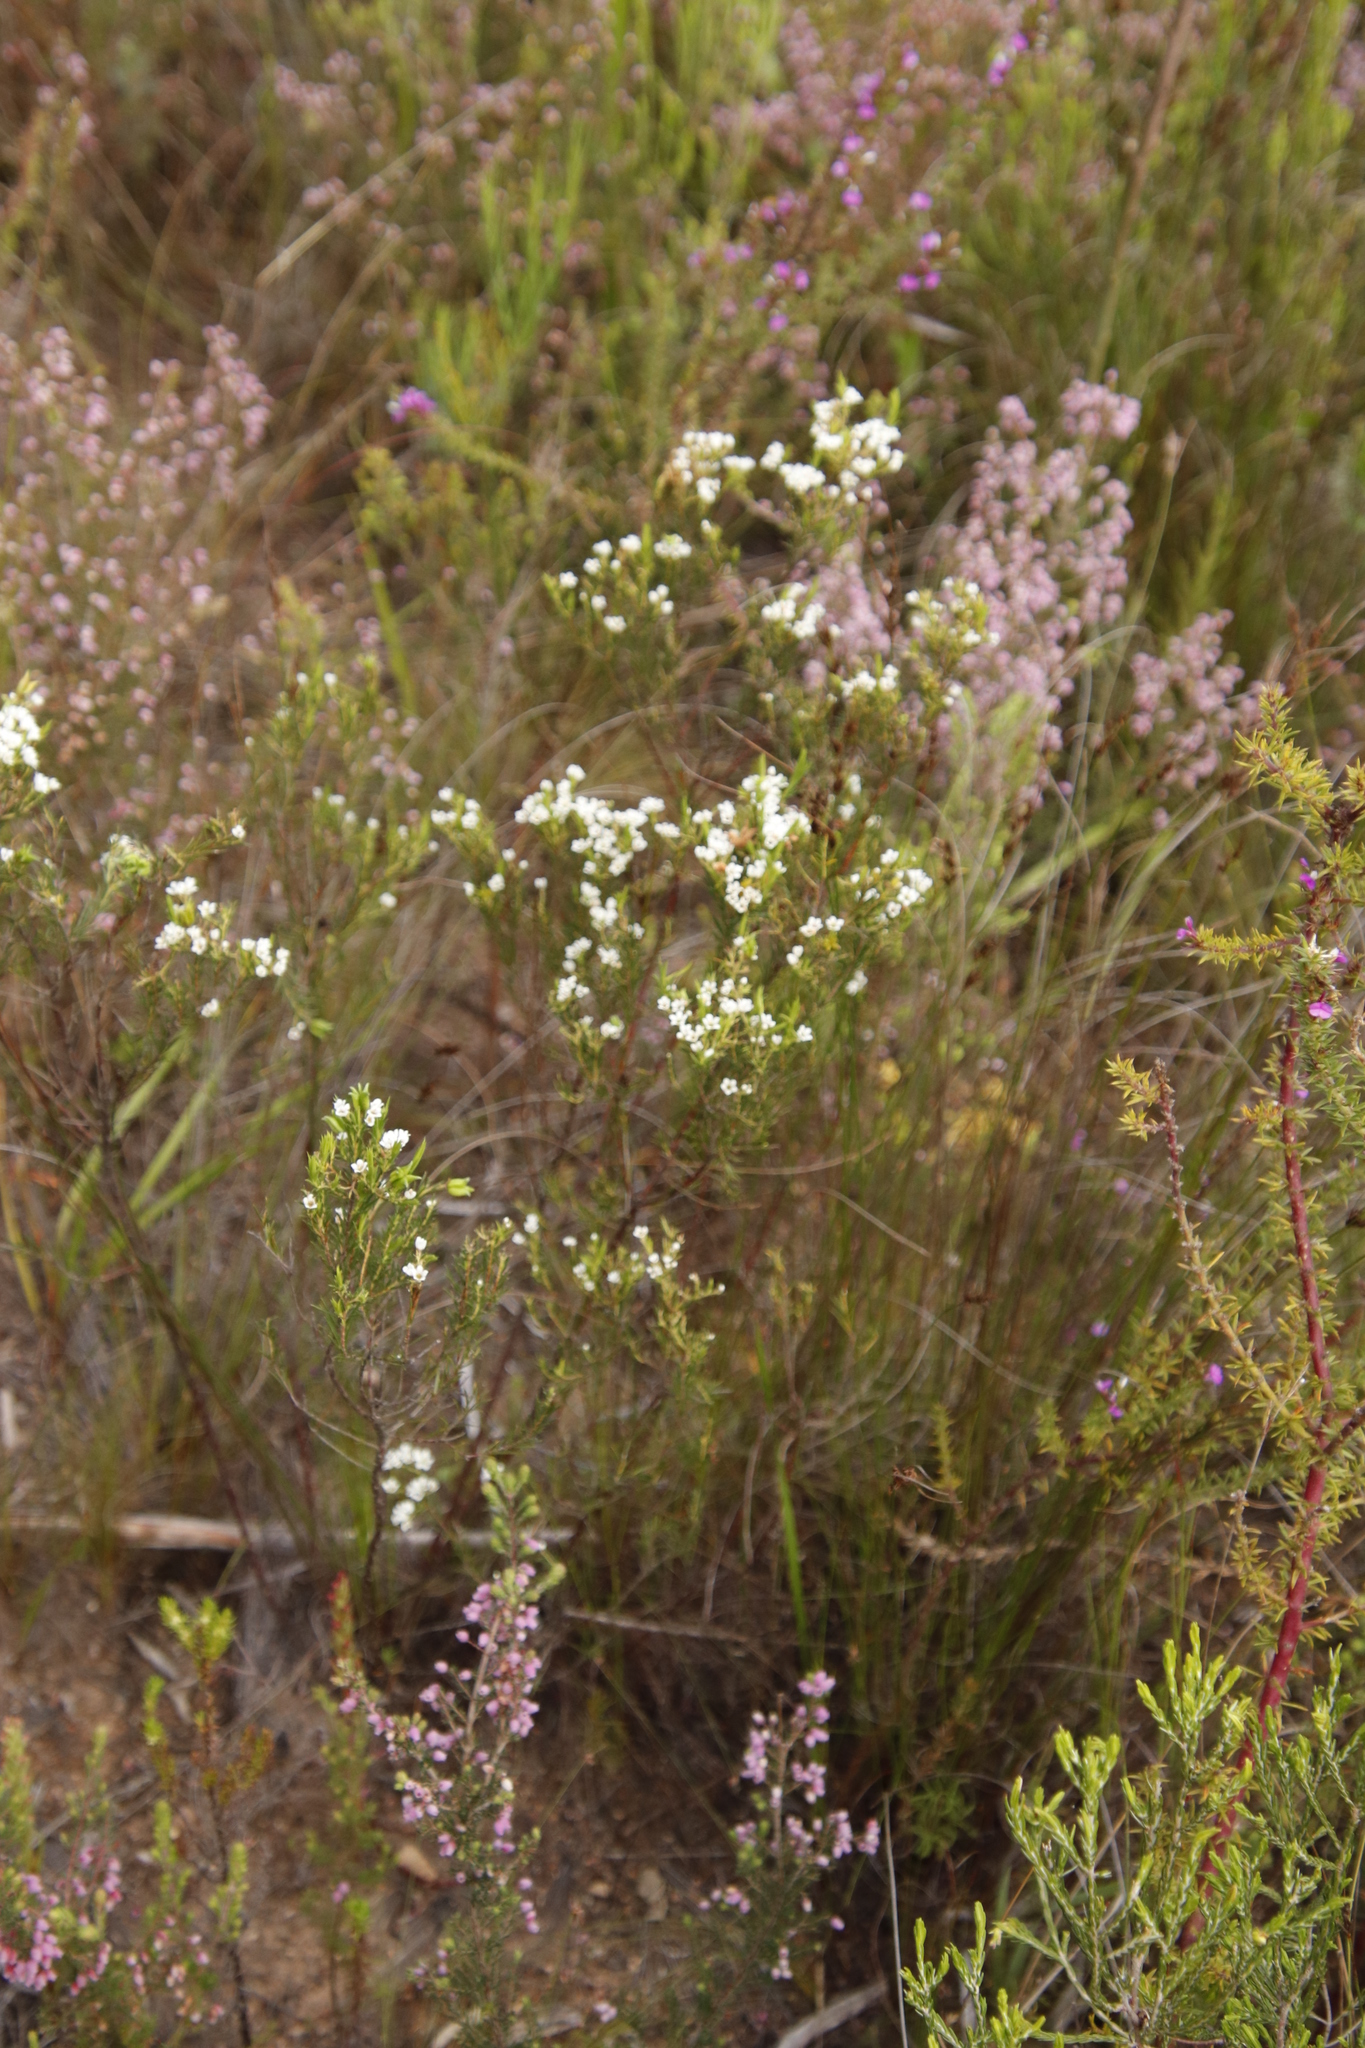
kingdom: Plantae
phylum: Tracheophyta
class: Magnoliopsida
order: Sapindales
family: Rutaceae
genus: Diosma
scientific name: Diosma hirsuta
